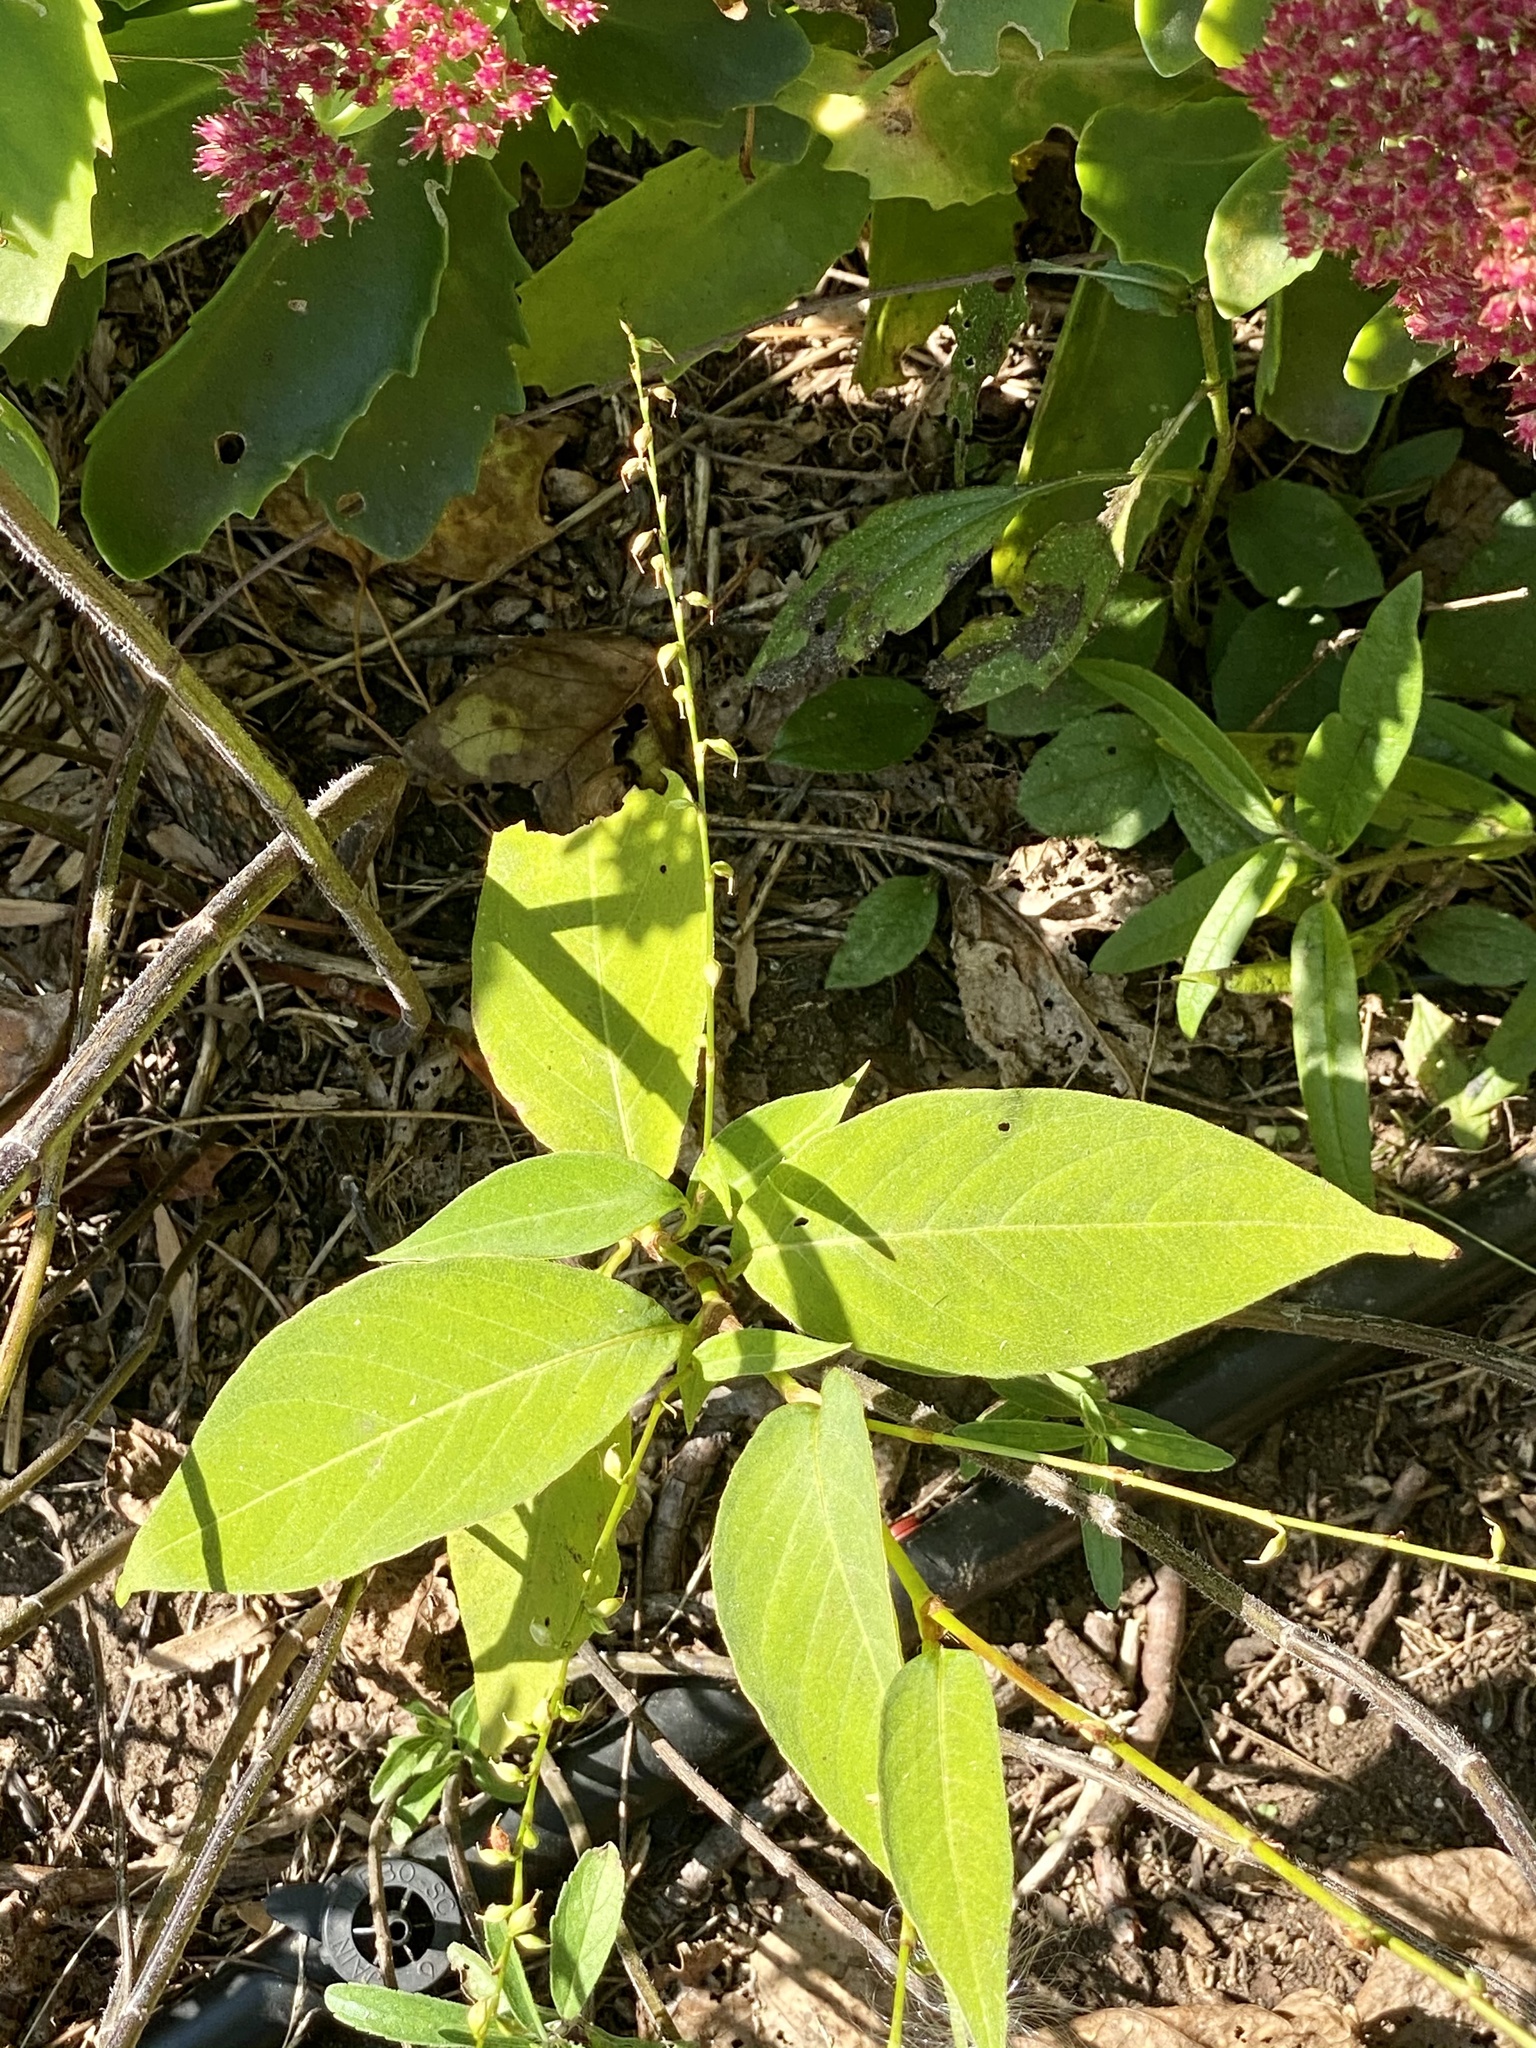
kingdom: Plantae
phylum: Tracheophyta
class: Magnoliopsida
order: Caryophyllales
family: Polygonaceae
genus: Persicaria
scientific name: Persicaria virginiana
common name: Jumpseed
